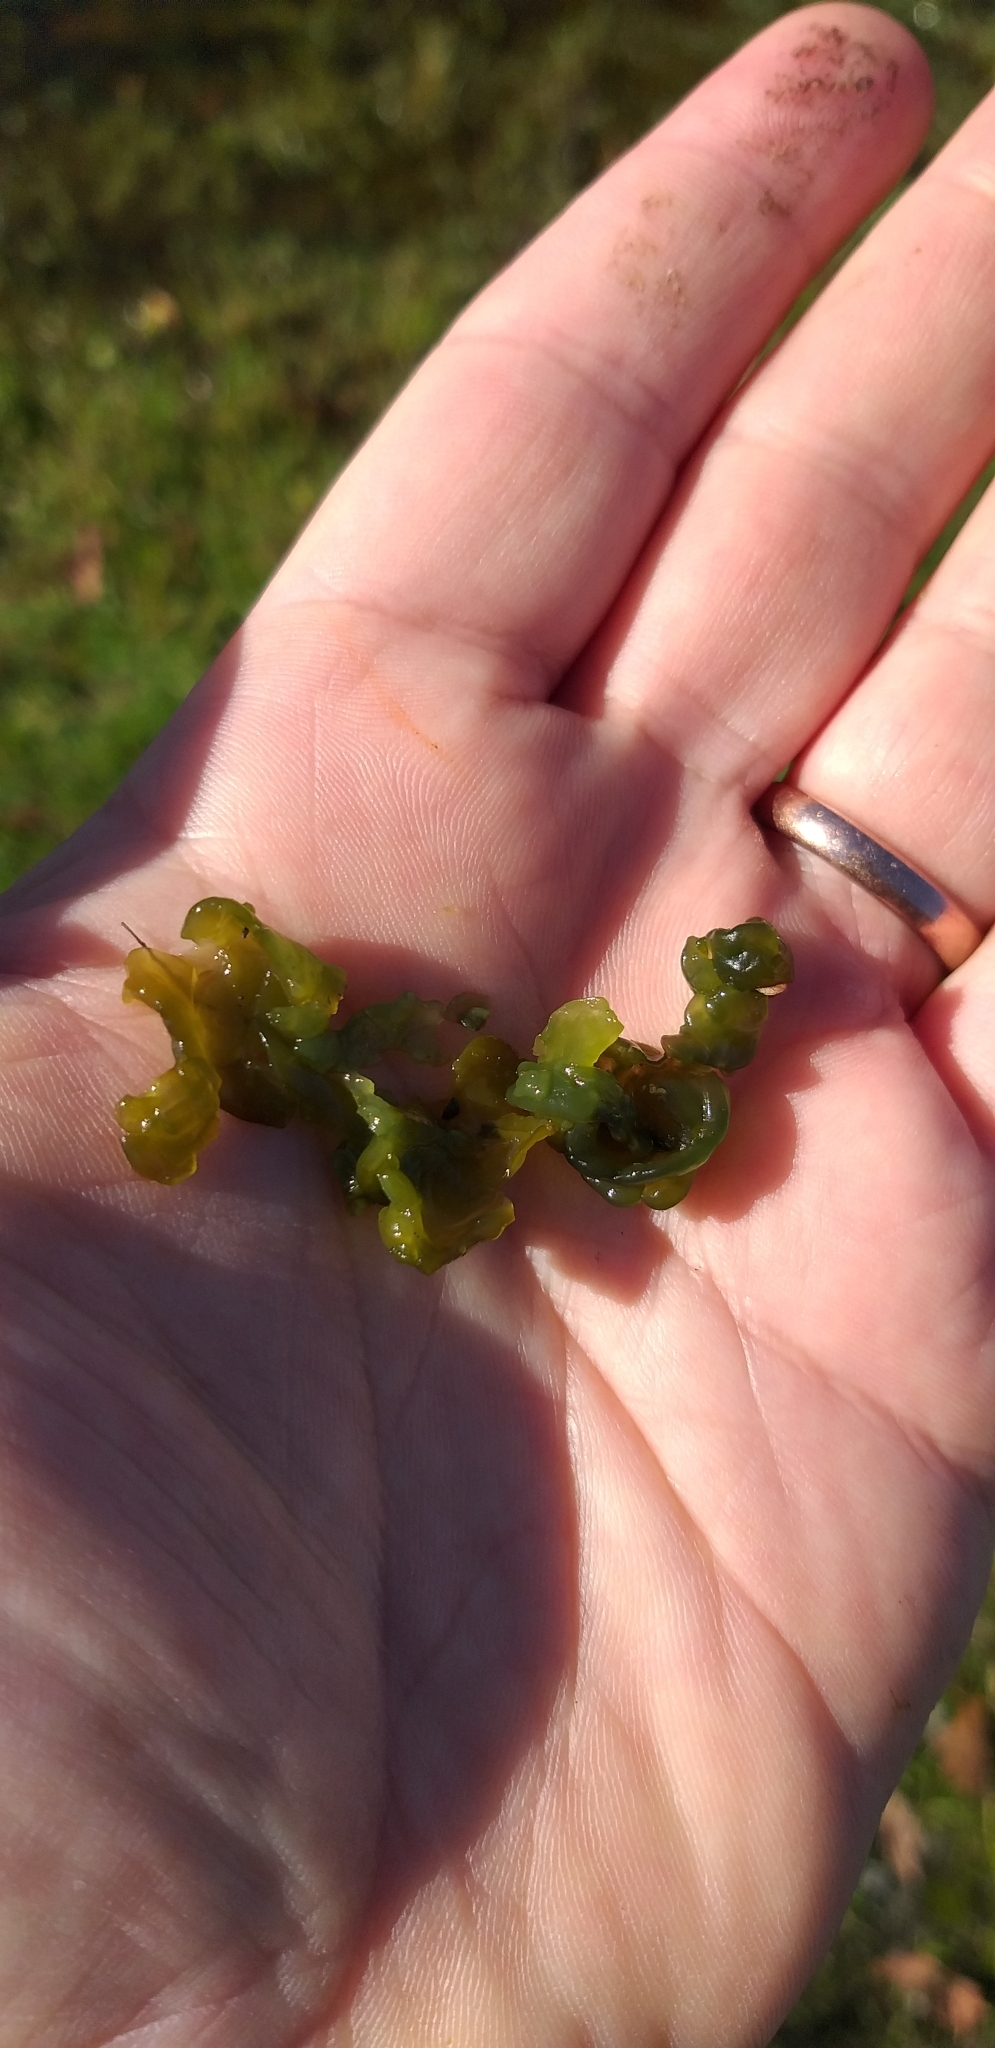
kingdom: Bacteria
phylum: Cyanobacteria
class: Cyanobacteriia
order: Cyanobacteriales
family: Nostocaceae
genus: Nostoc
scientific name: Nostoc commune
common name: Star jelly
